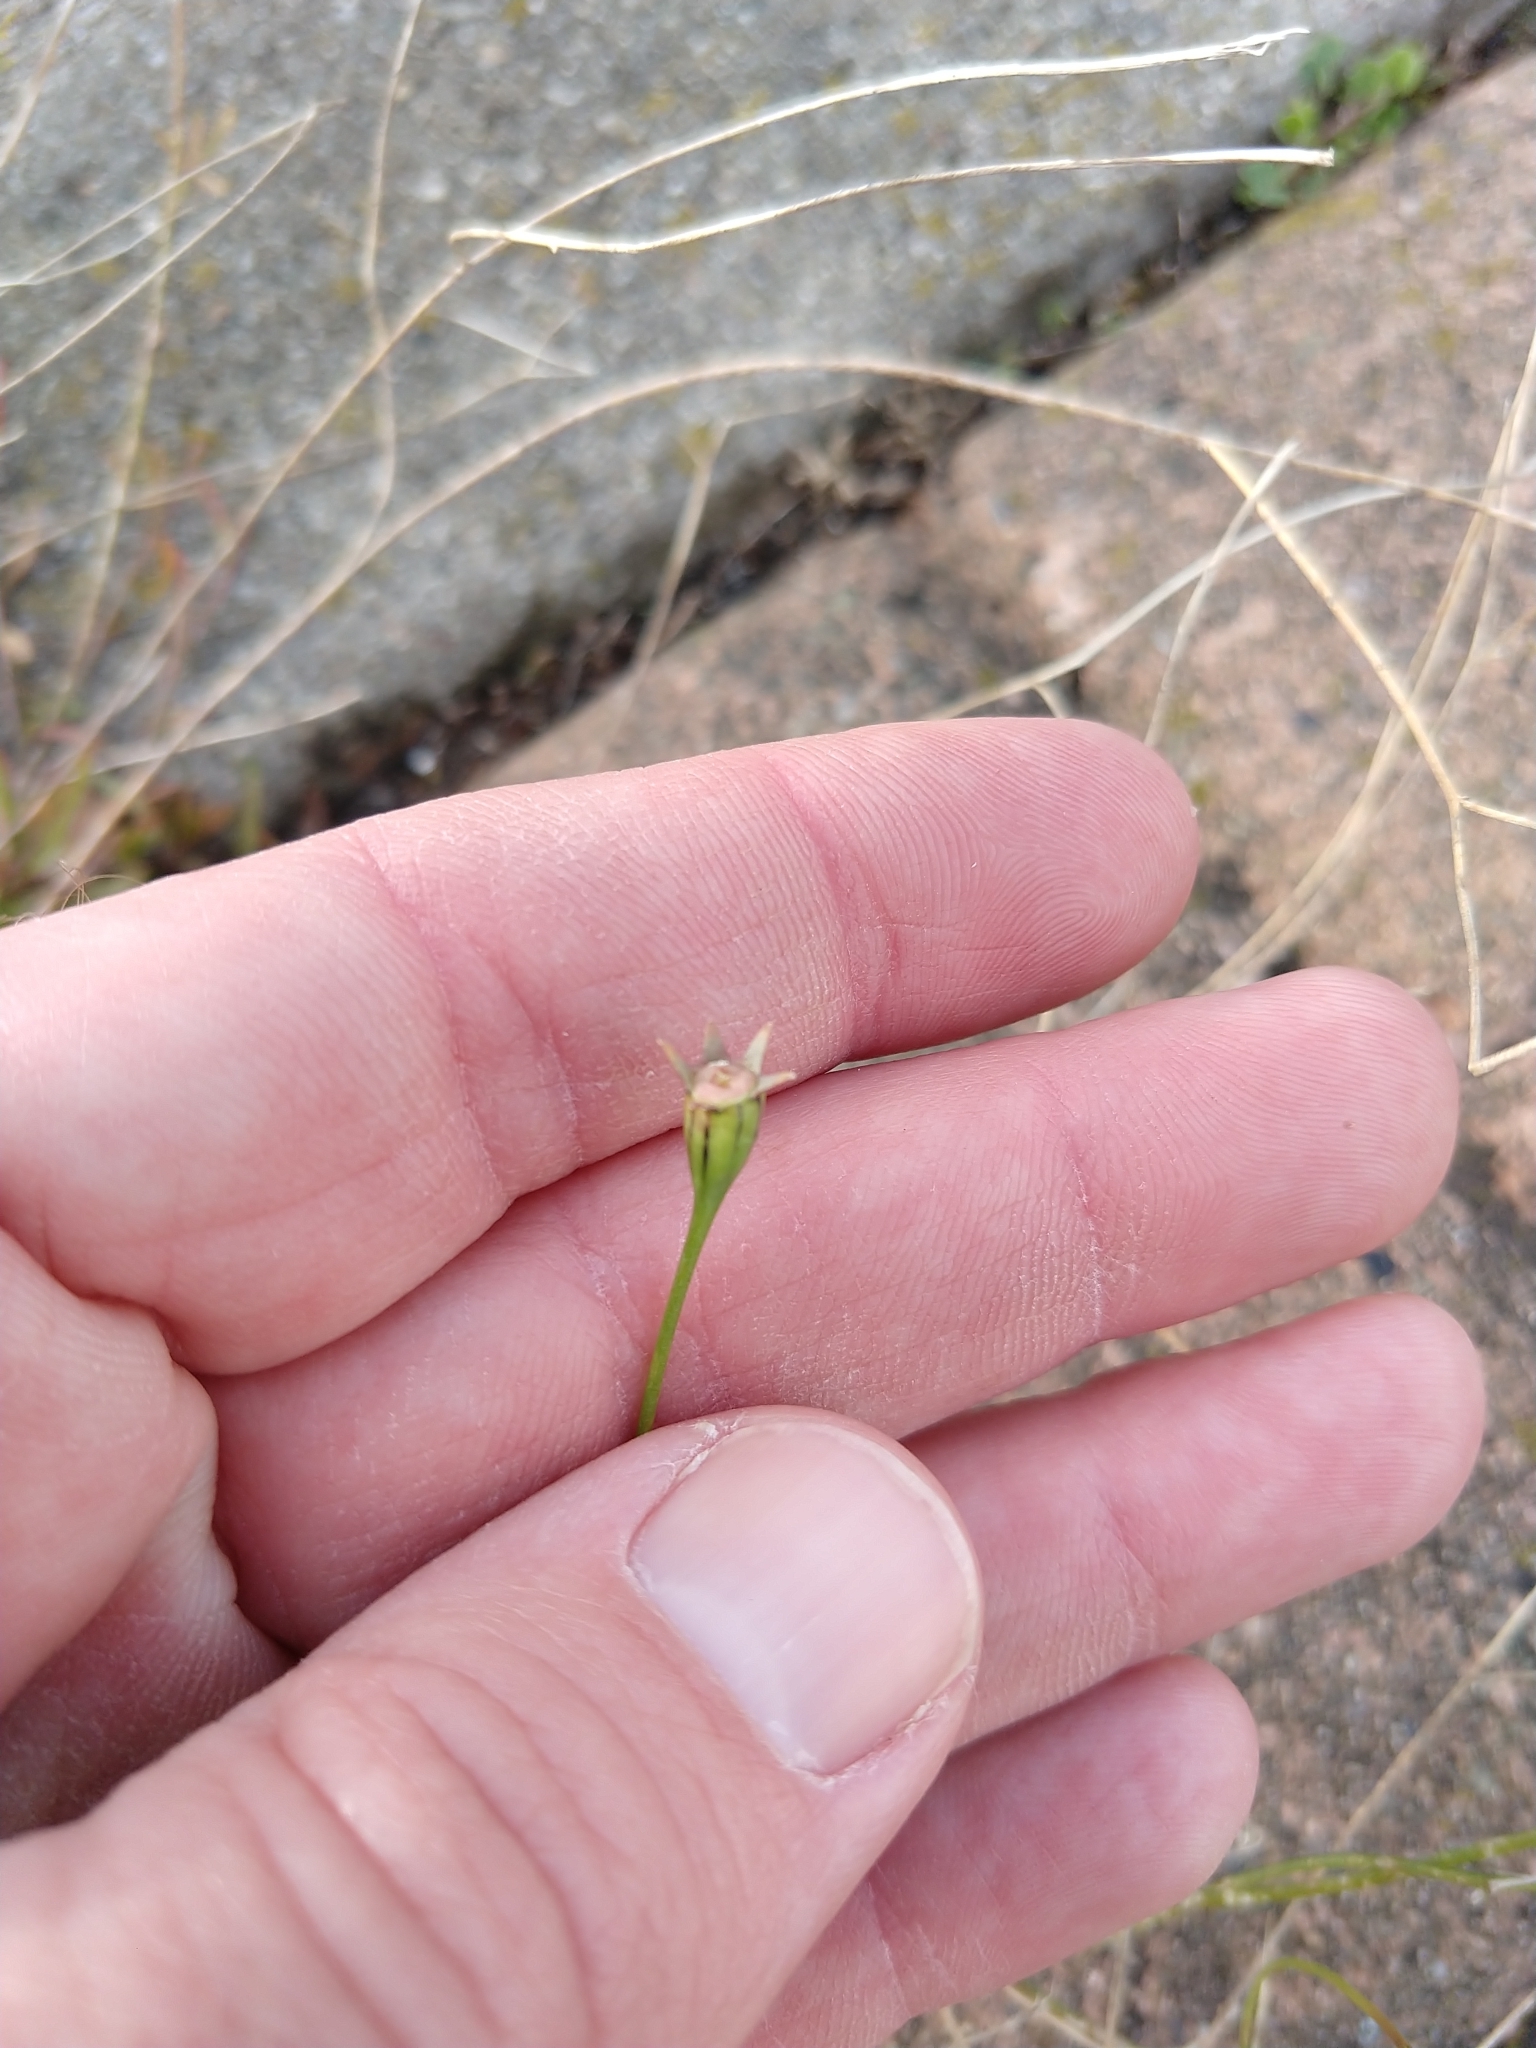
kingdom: Plantae
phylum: Tracheophyta
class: Magnoliopsida
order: Asterales
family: Campanulaceae
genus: Wahlenbergia
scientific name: Wahlenbergia marginata
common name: Southern rockbell
